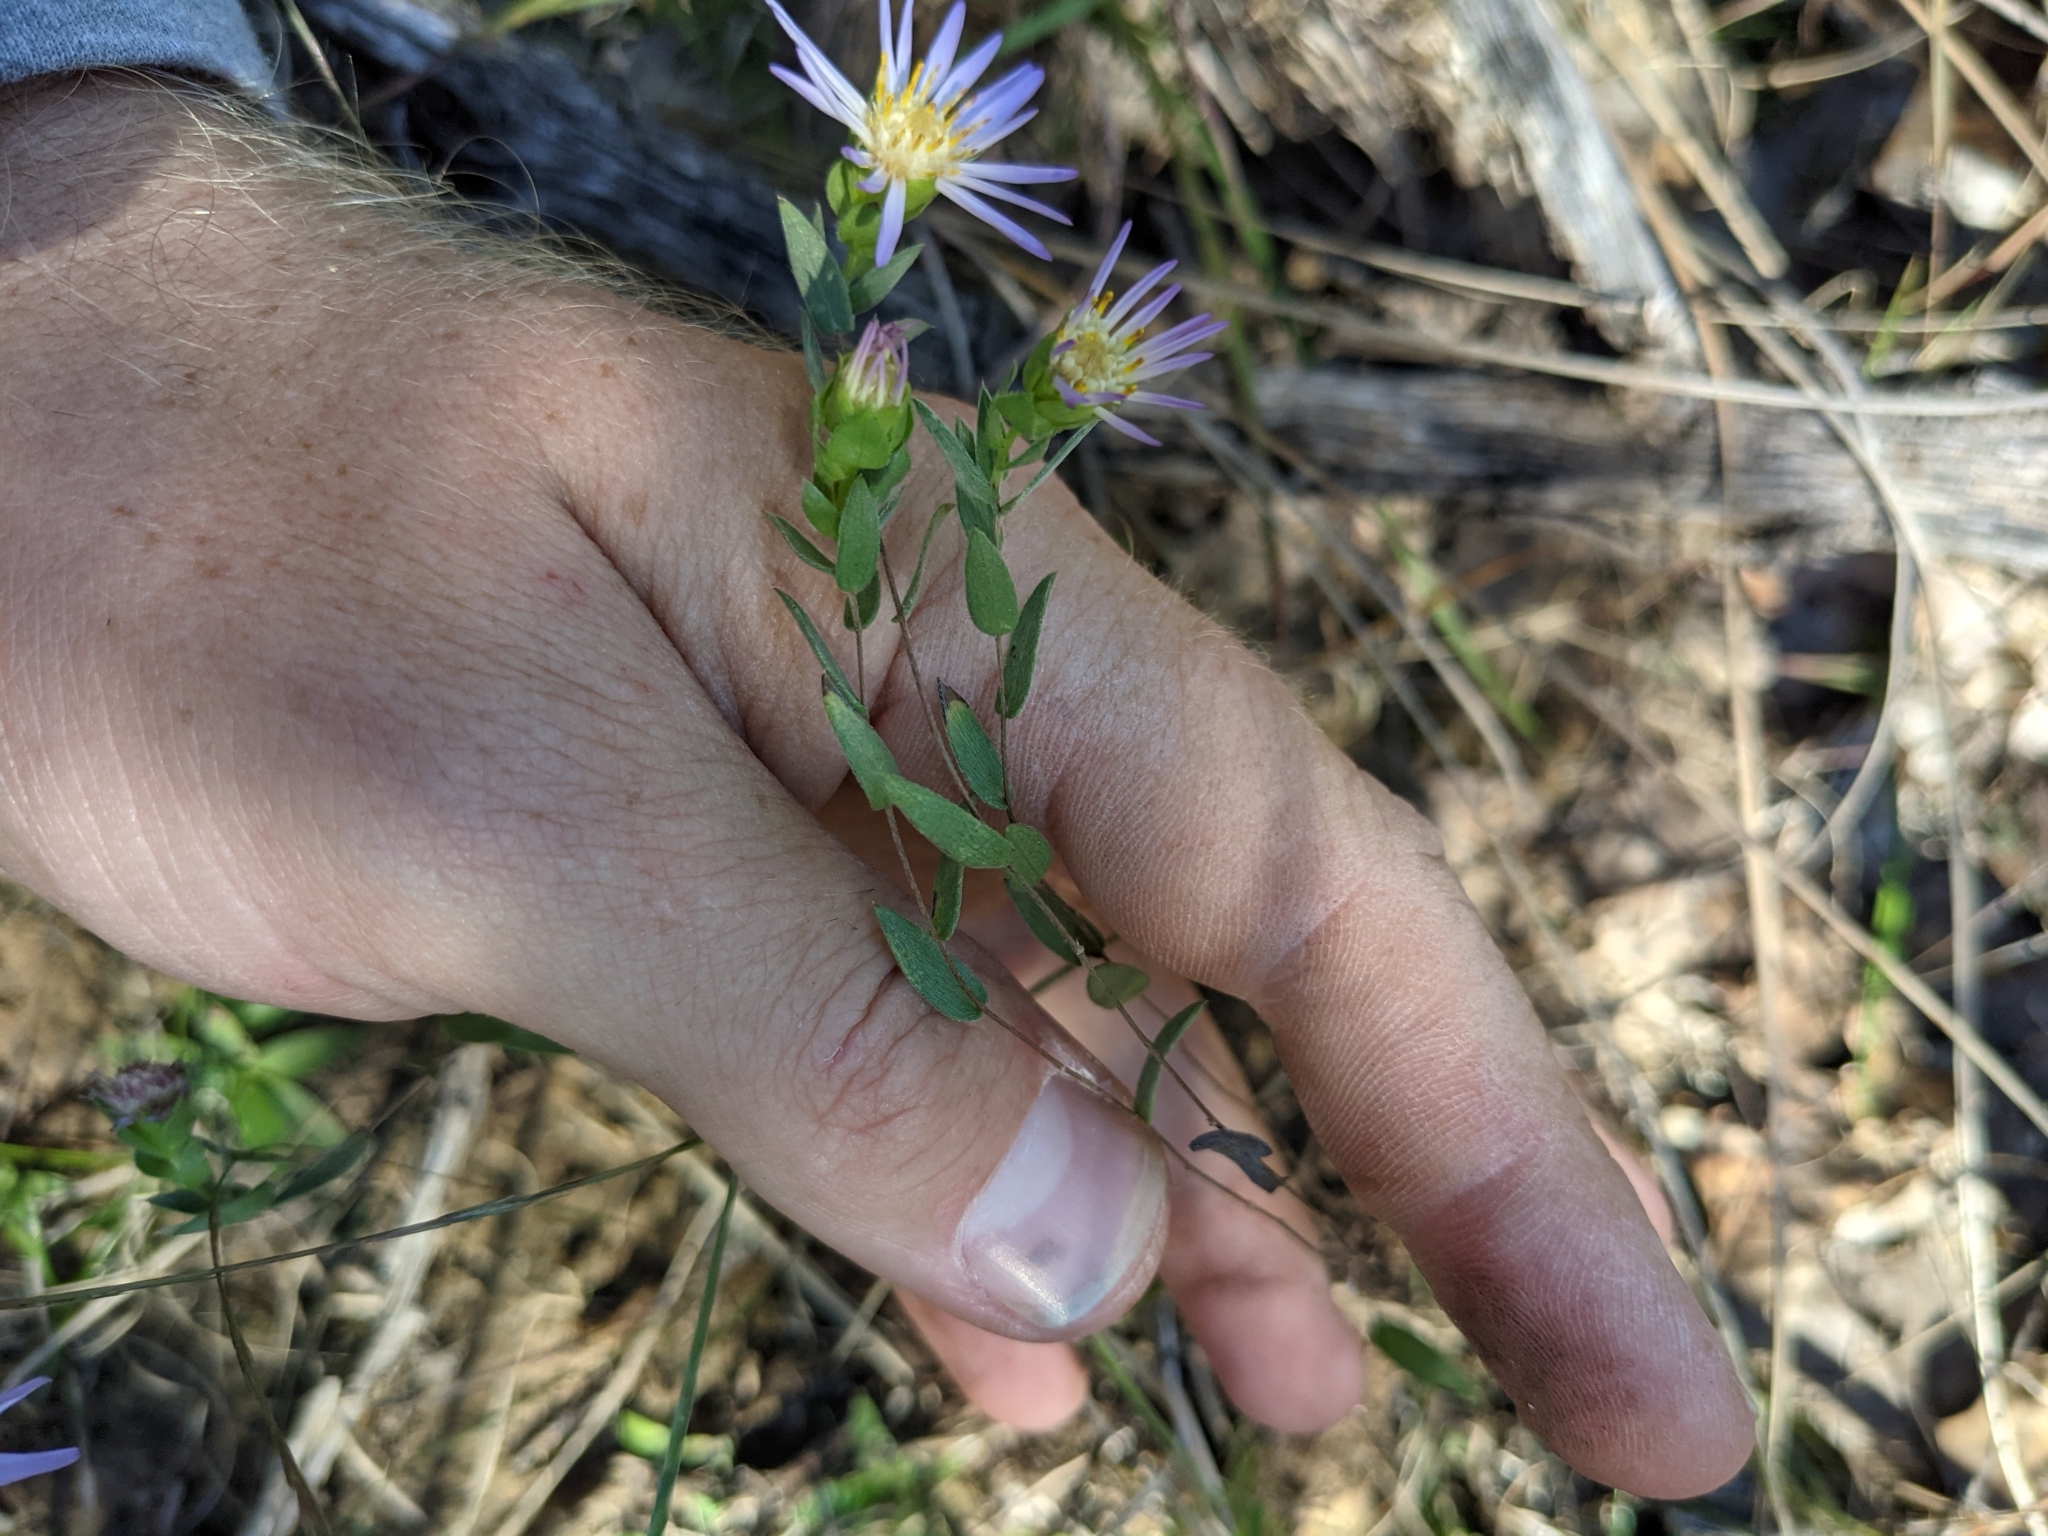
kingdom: Plantae
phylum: Tracheophyta
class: Magnoliopsida
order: Asterales
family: Asteraceae
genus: Symphyotrichum
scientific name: Symphyotrichum pratense
